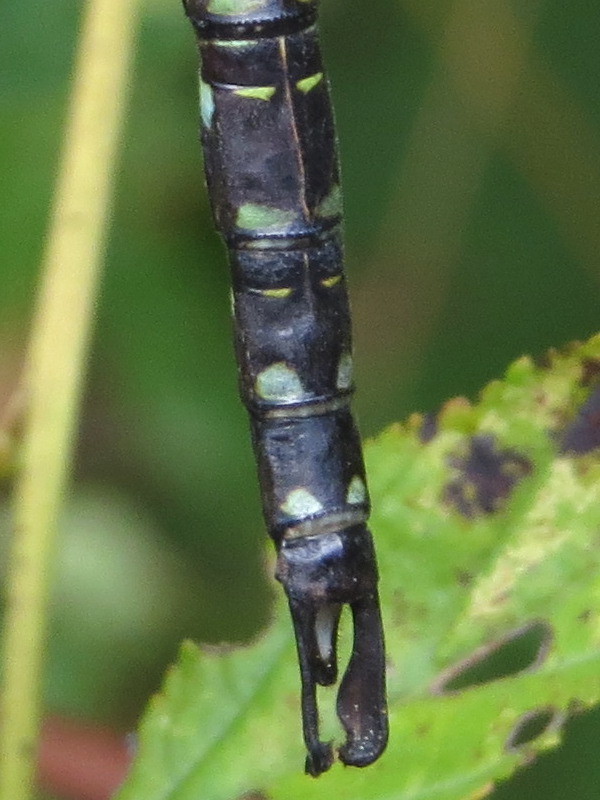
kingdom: Animalia
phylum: Arthropoda
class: Insecta
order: Odonata
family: Aeshnidae
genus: Aeshna
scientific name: Aeshna umbrosa
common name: Shadow darner
